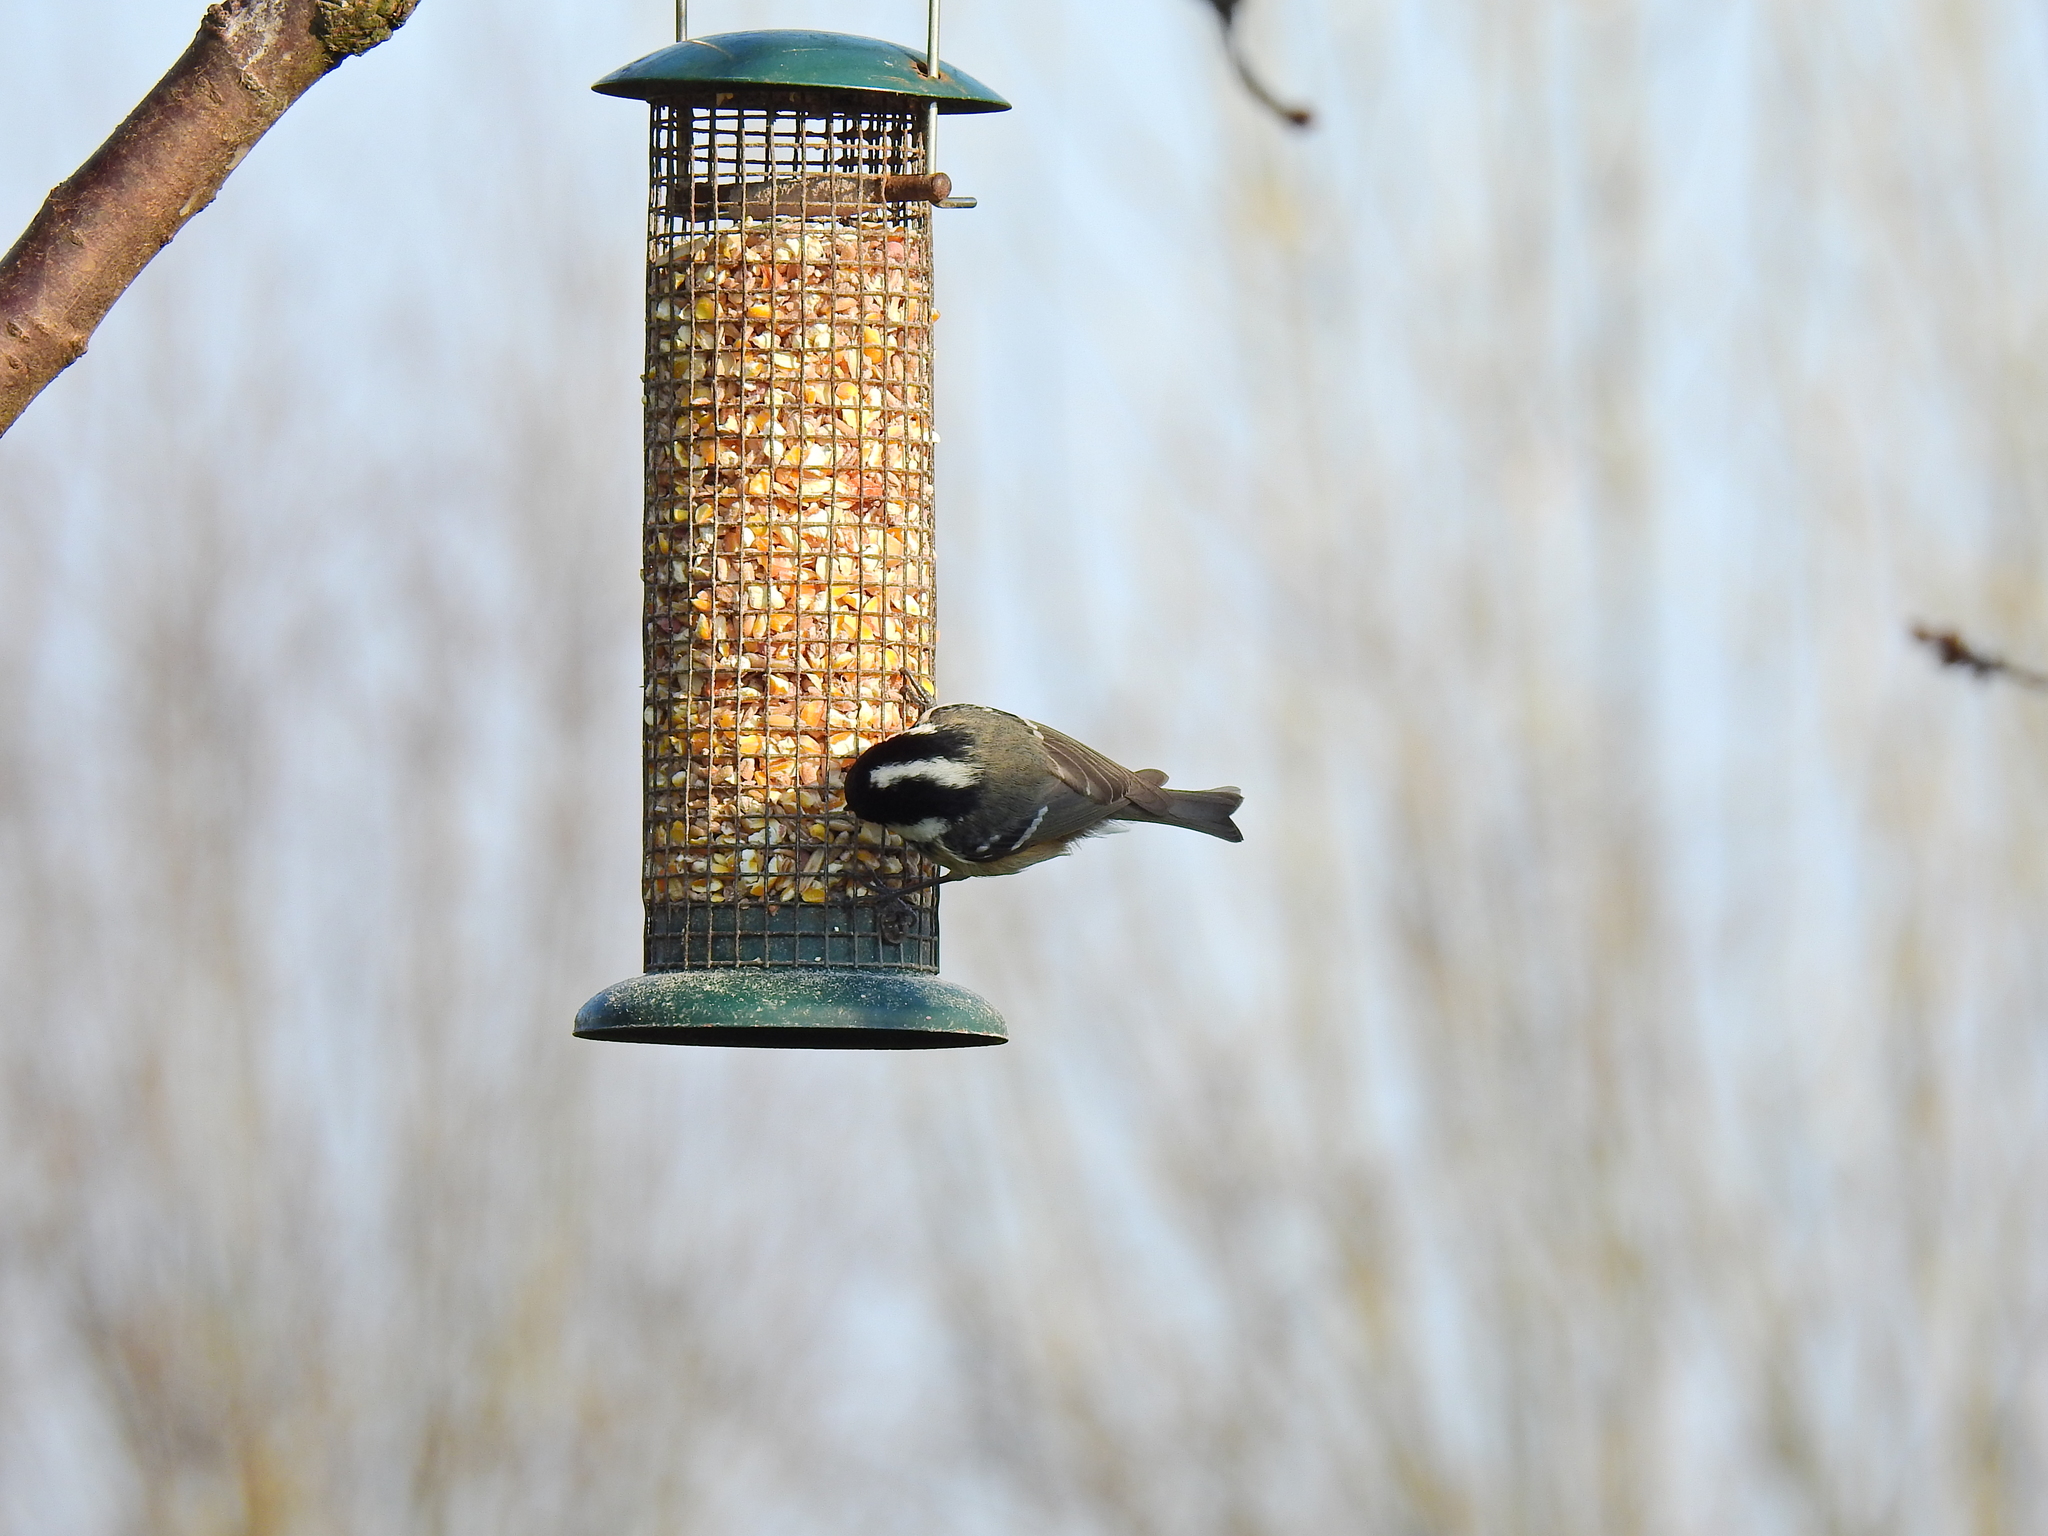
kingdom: Animalia
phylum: Chordata
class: Aves
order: Passeriformes
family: Paridae
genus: Periparus
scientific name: Periparus ater
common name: Coal tit
